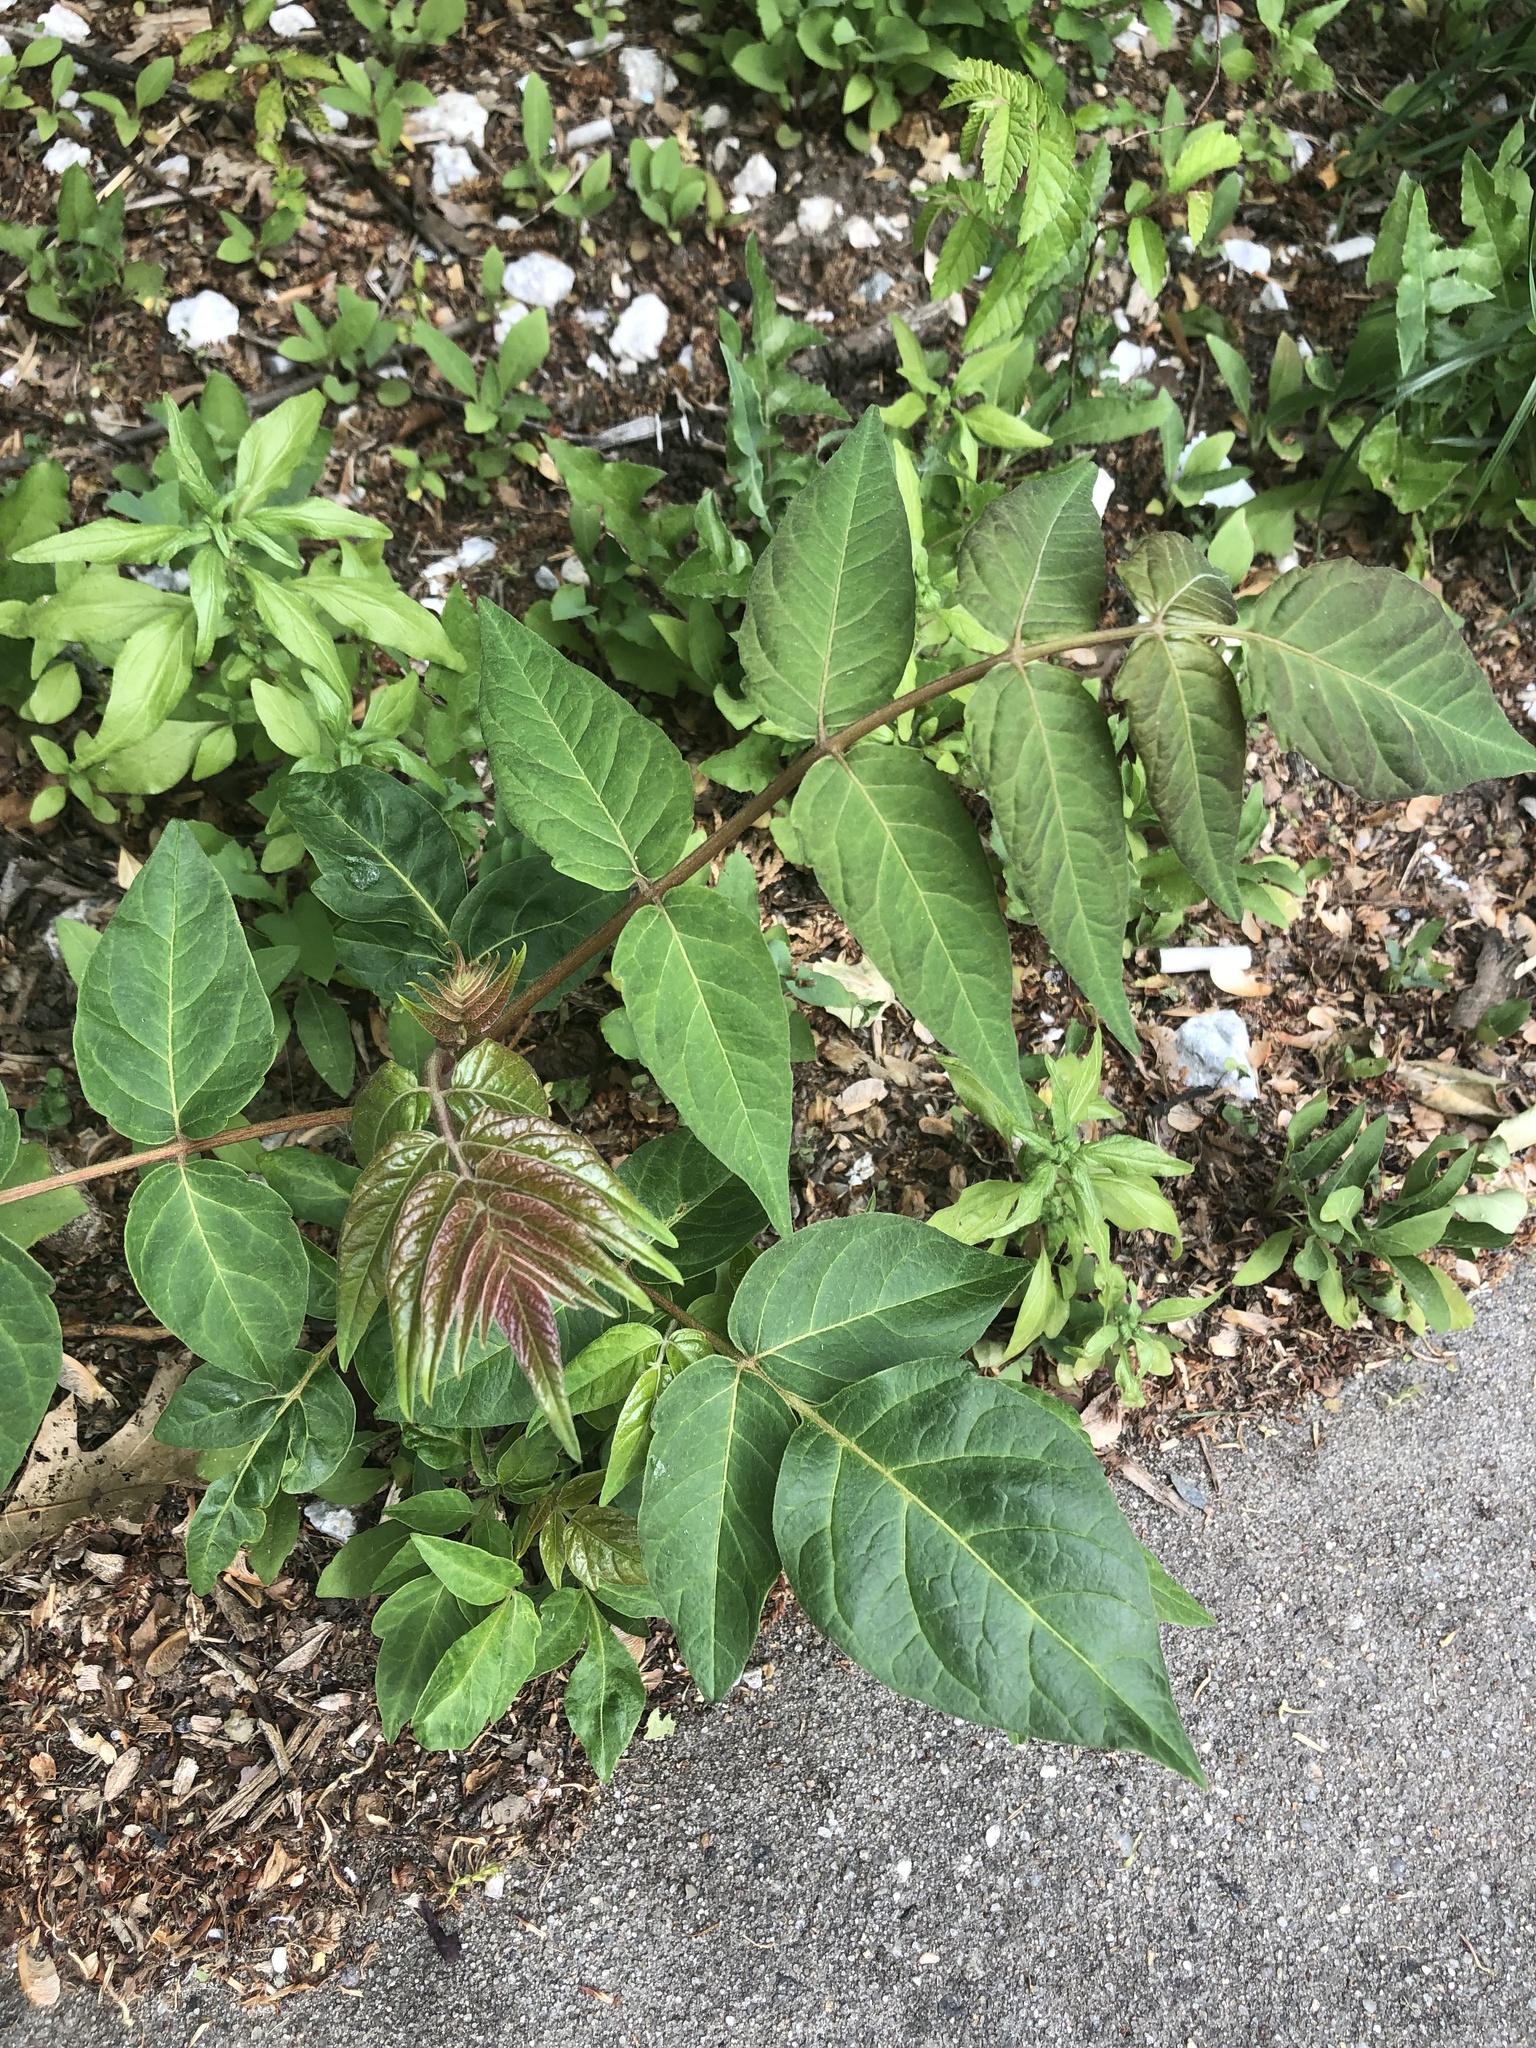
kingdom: Plantae
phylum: Tracheophyta
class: Magnoliopsida
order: Sapindales
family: Simaroubaceae
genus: Ailanthus
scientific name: Ailanthus altissima
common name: Tree-of-heaven
